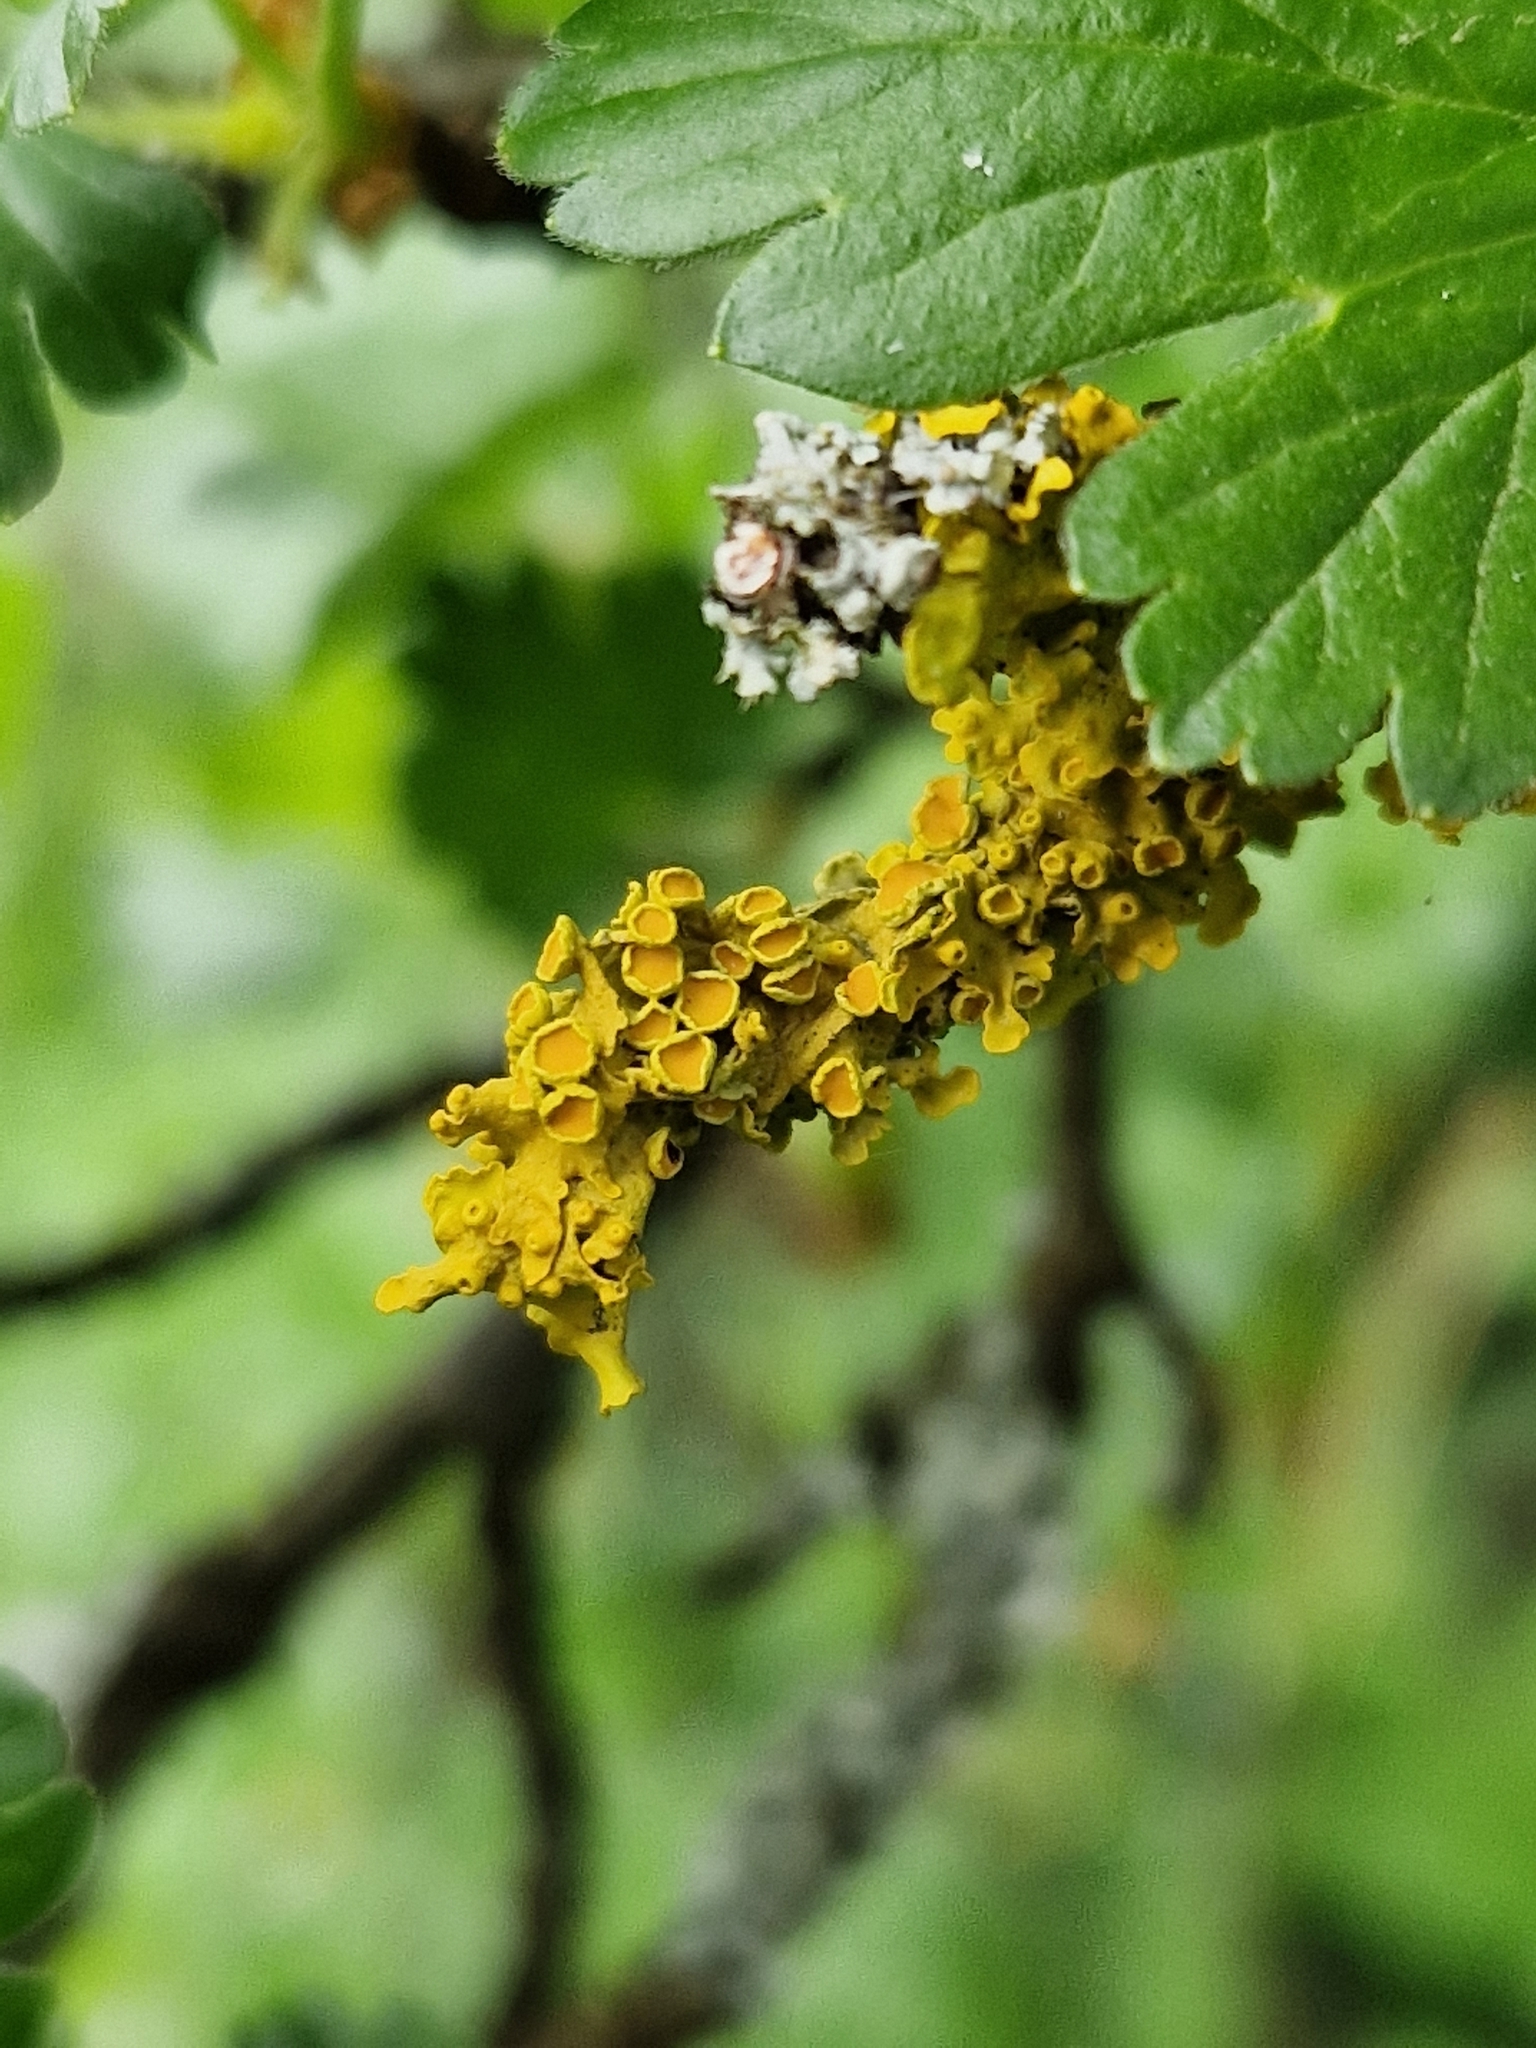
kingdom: Fungi
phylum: Ascomycota
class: Lecanoromycetes
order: Teloschistales
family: Teloschistaceae
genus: Xanthoria
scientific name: Xanthoria parietina
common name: Common orange lichen
